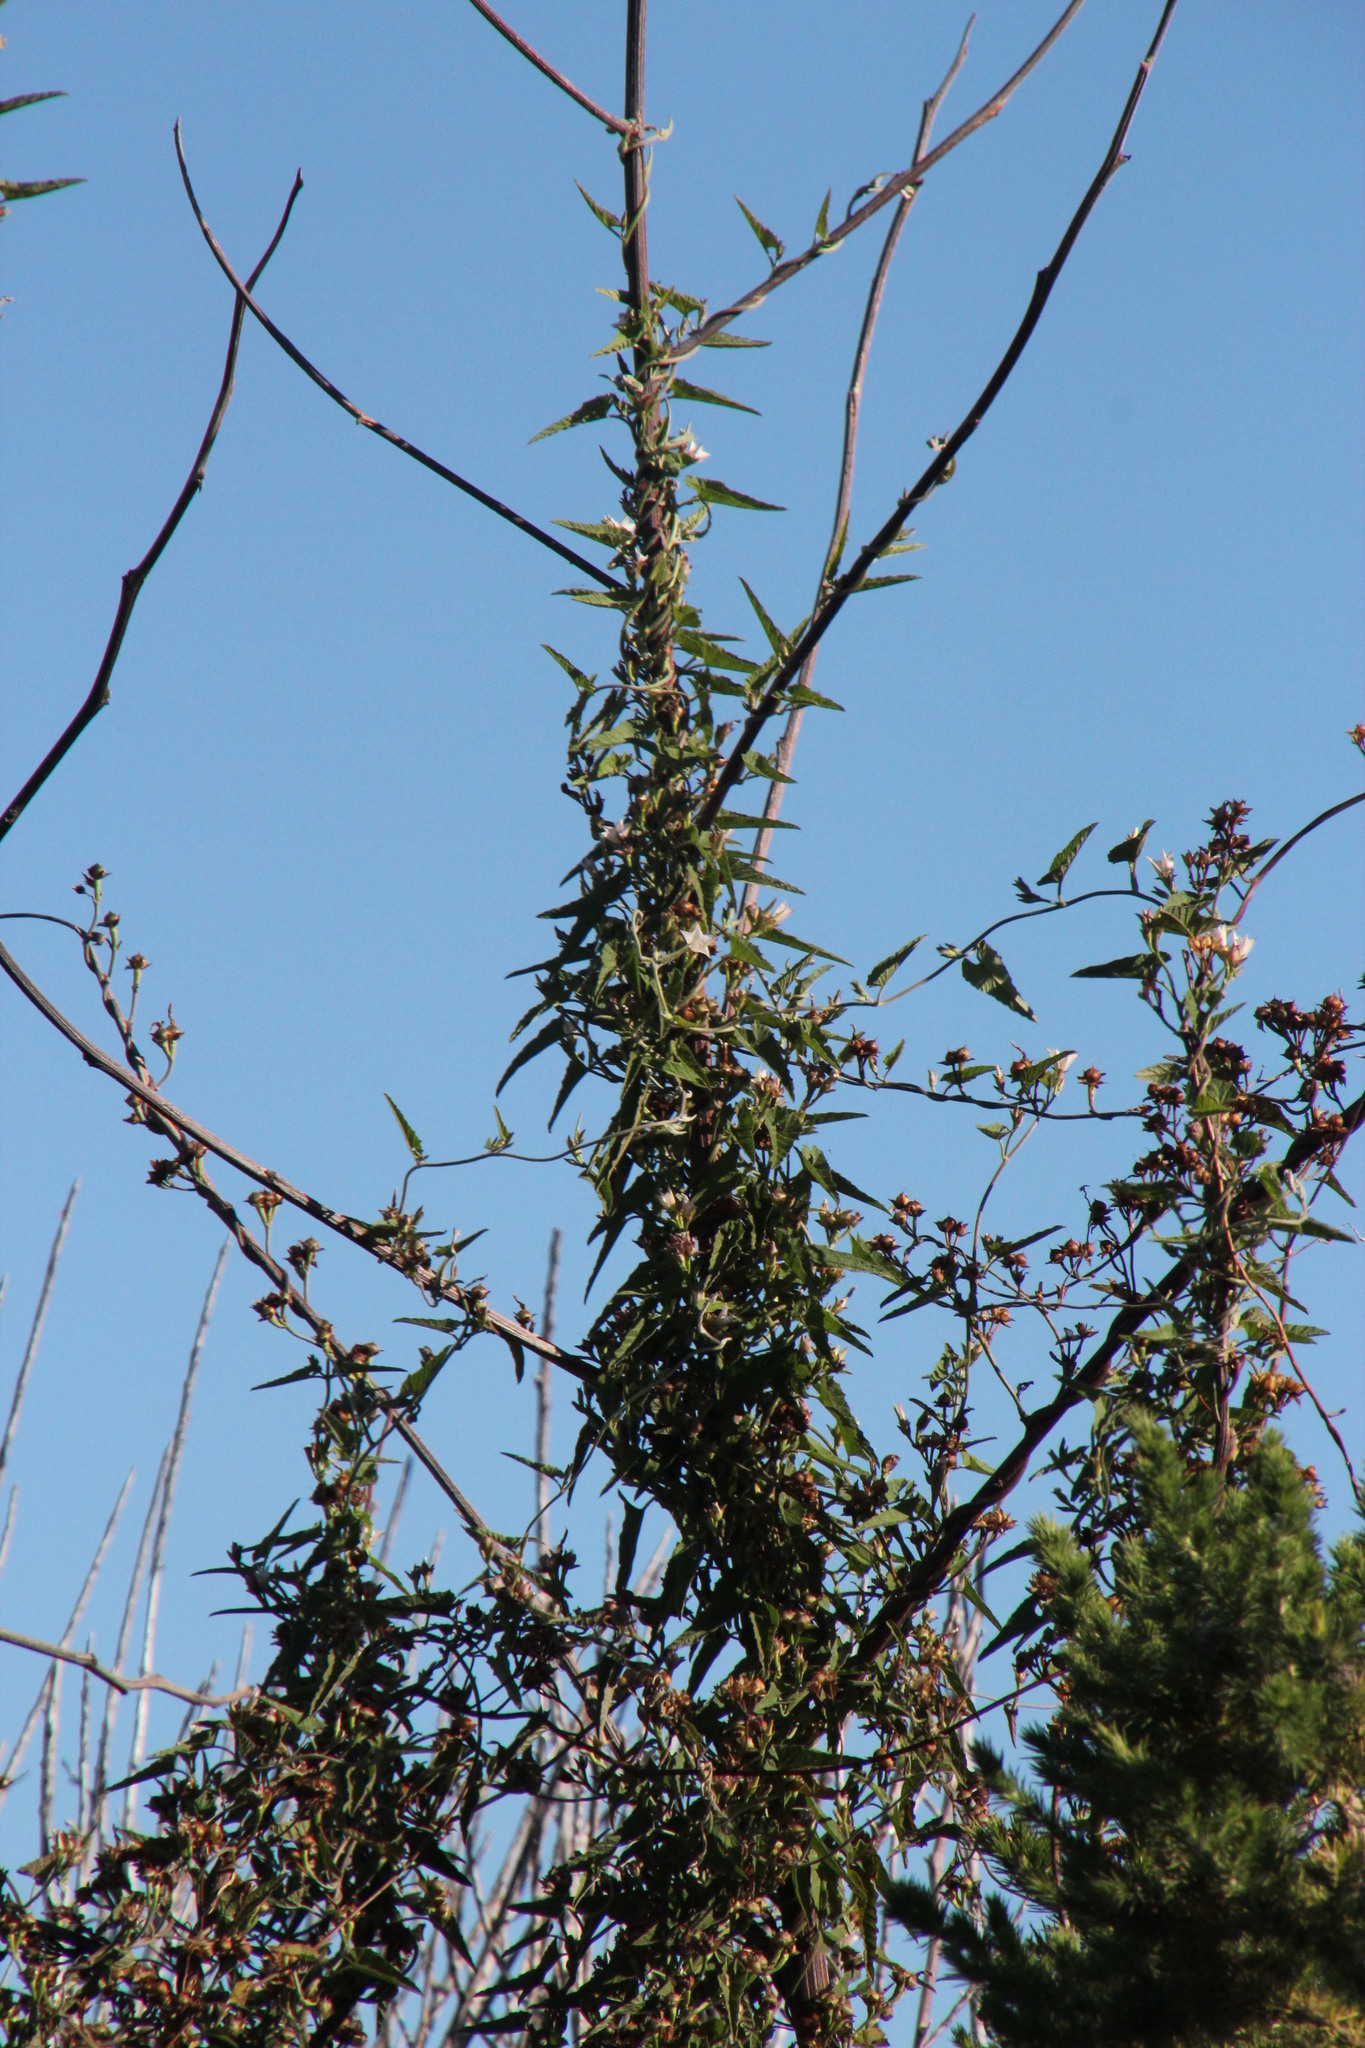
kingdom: Plantae
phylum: Tracheophyta
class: Magnoliopsida
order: Solanales
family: Convolvulaceae
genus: Convolvulus
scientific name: Convolvulus farinosus
